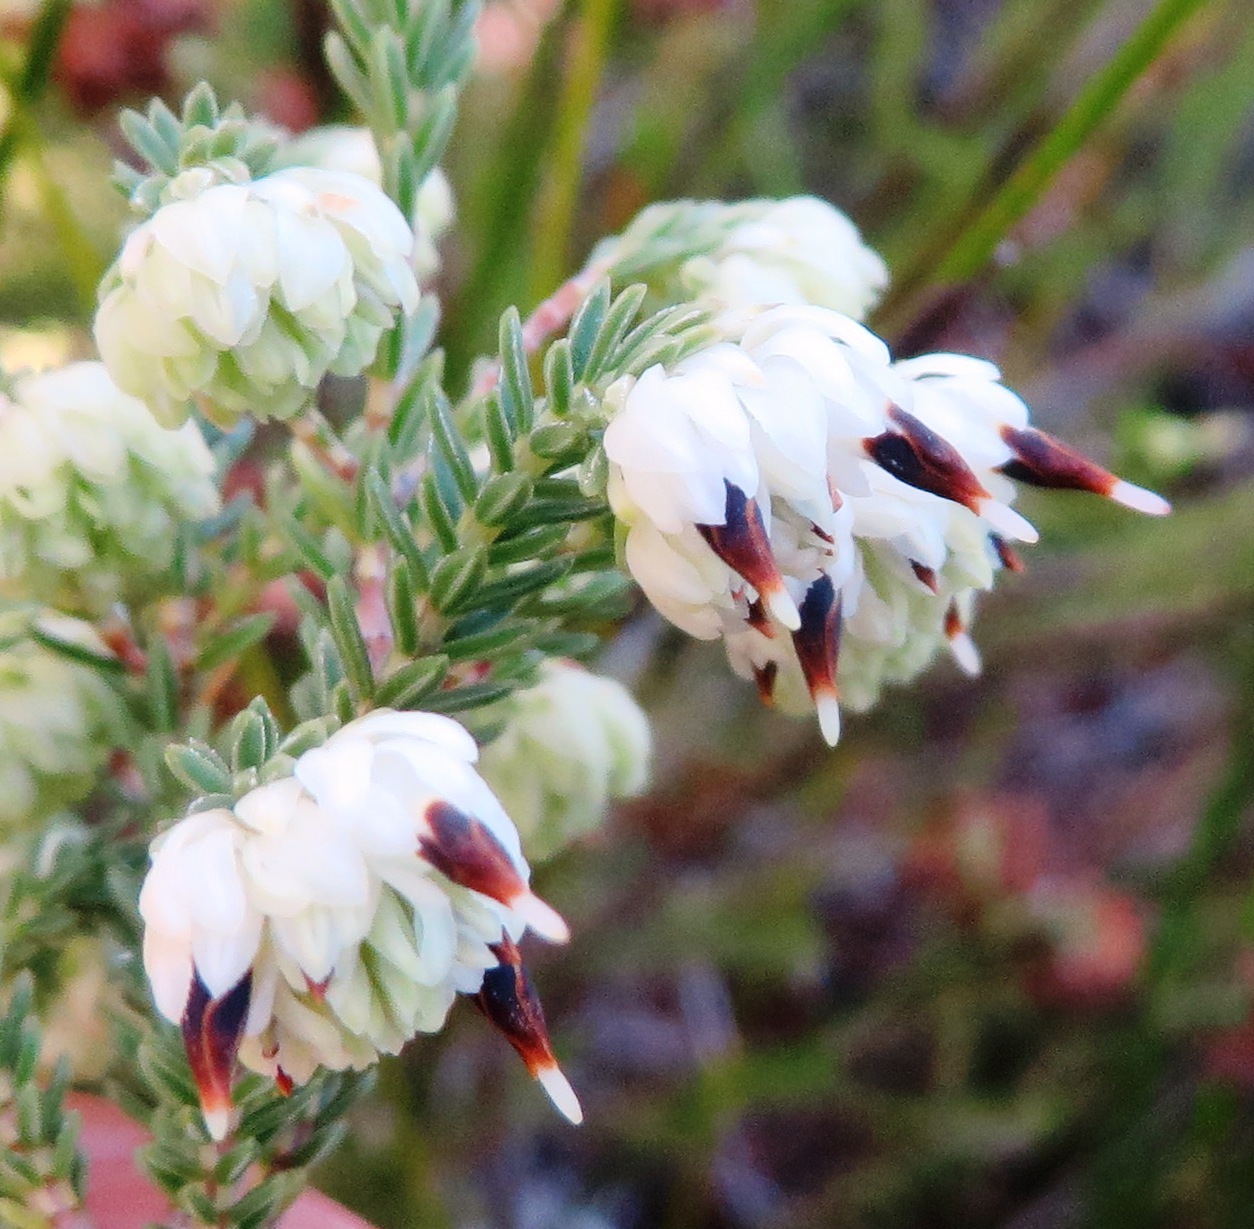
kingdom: Plantae
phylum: Tracheophyta
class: Magnoliopsida
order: Ericales
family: Ericaceae
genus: Erica
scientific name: Erica cumuliflora
